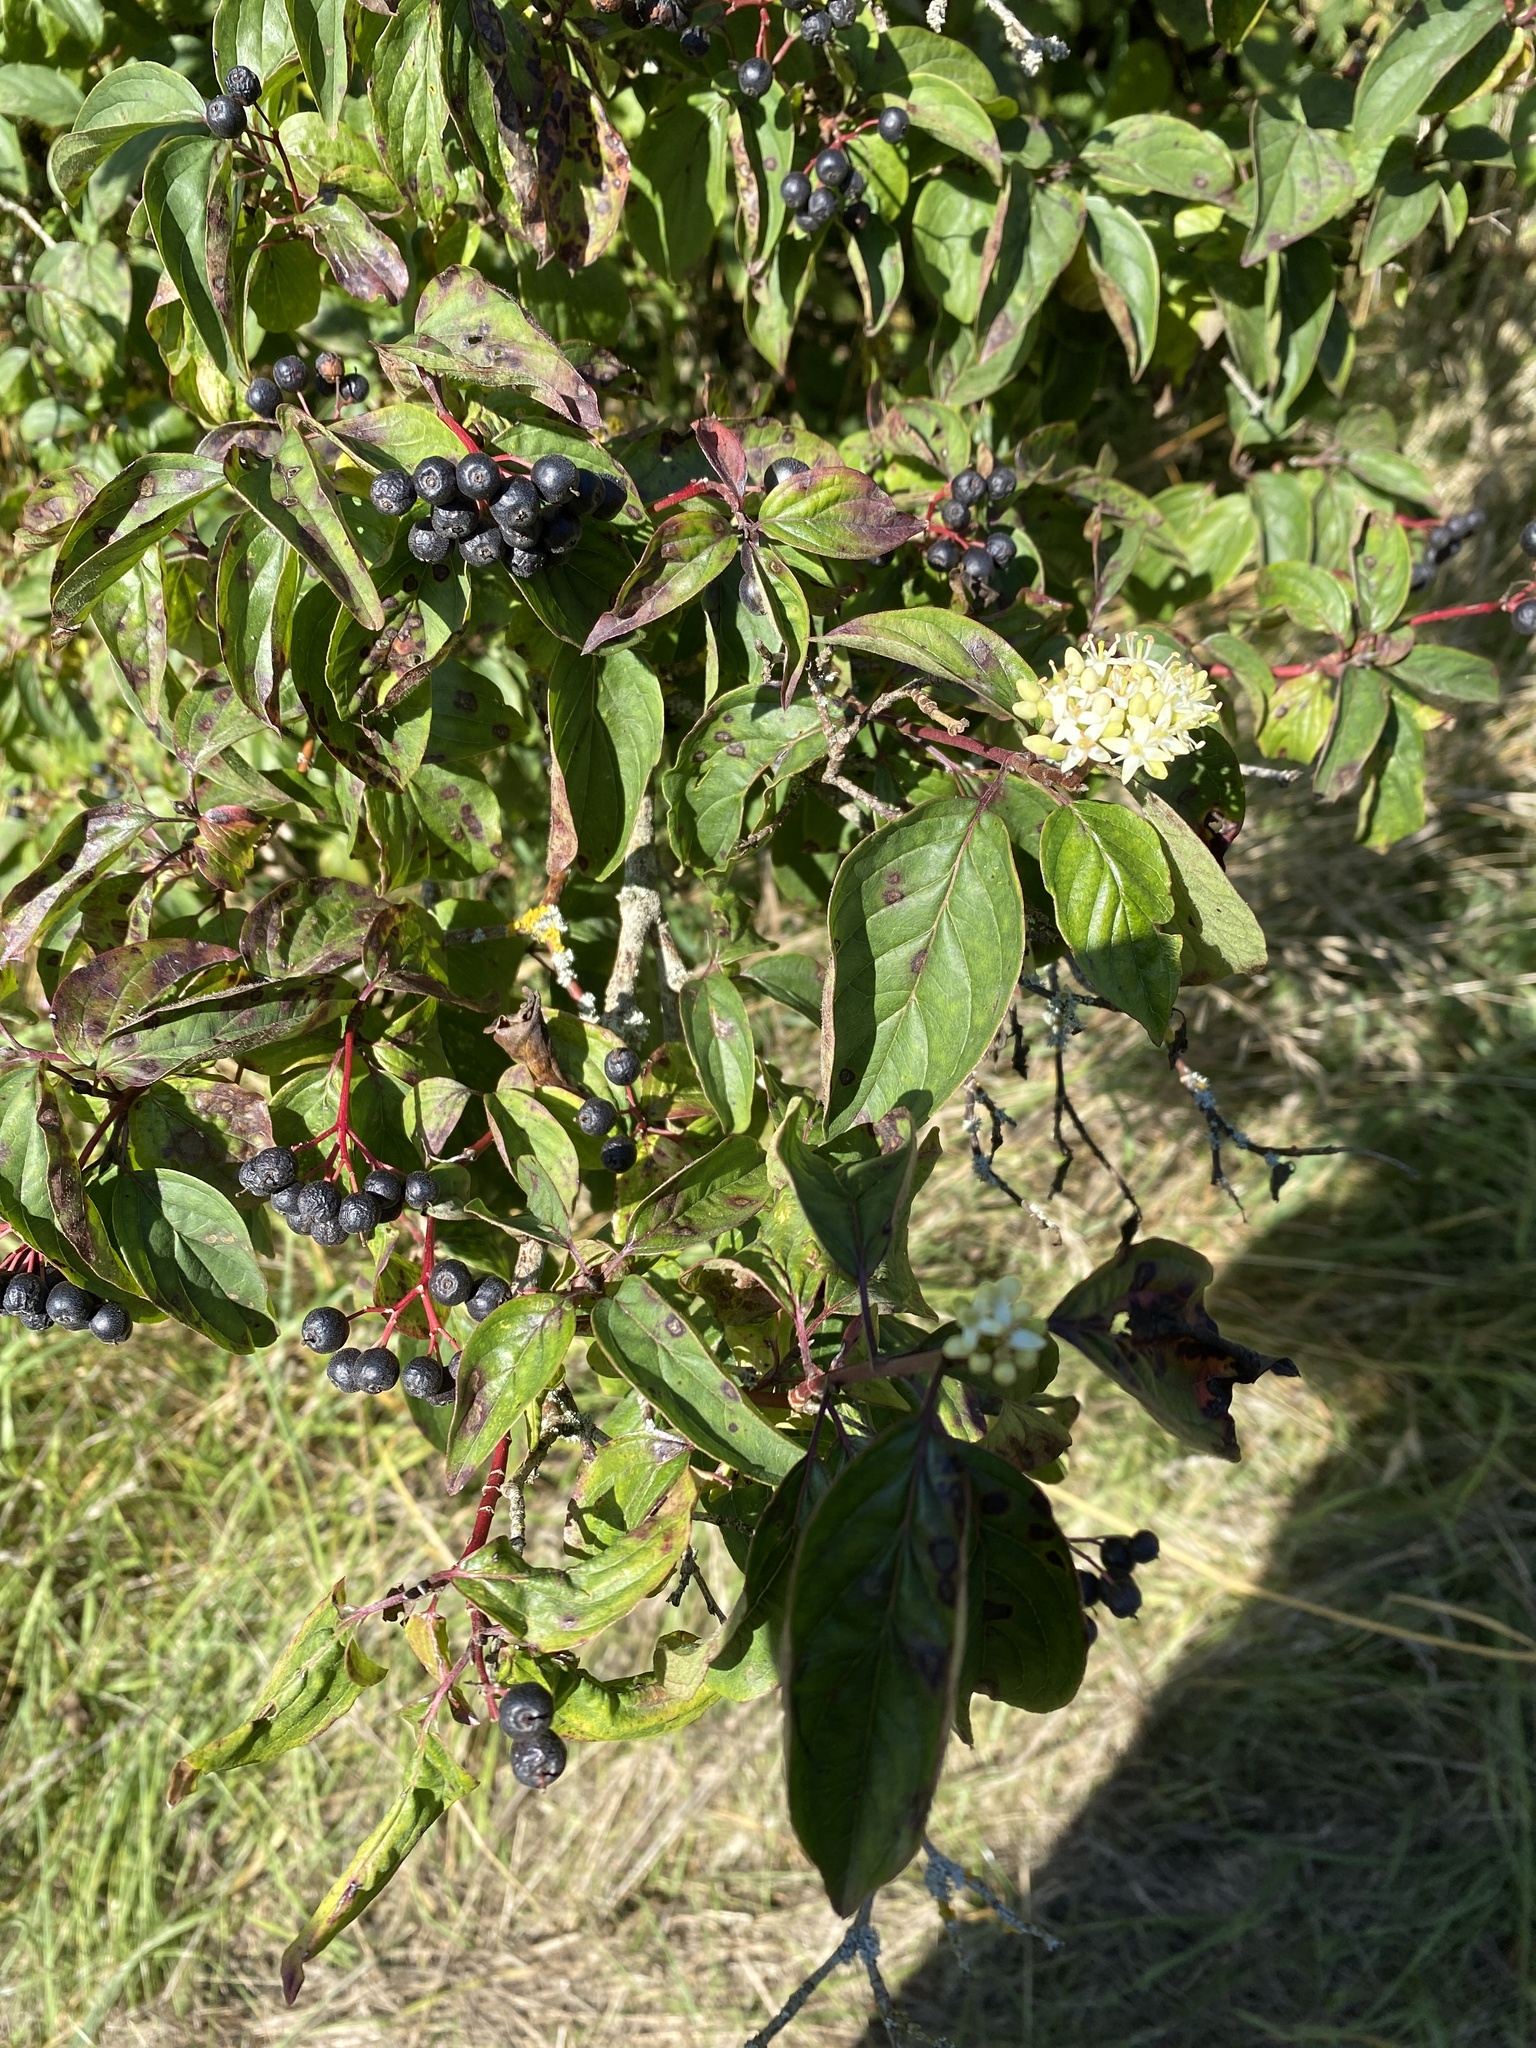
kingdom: Plantae
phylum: Tracheophyta
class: Magnoliopsida
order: Cornales
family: Cornaceae
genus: Cornus
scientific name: Cornus sanguinea
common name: Dogwood
